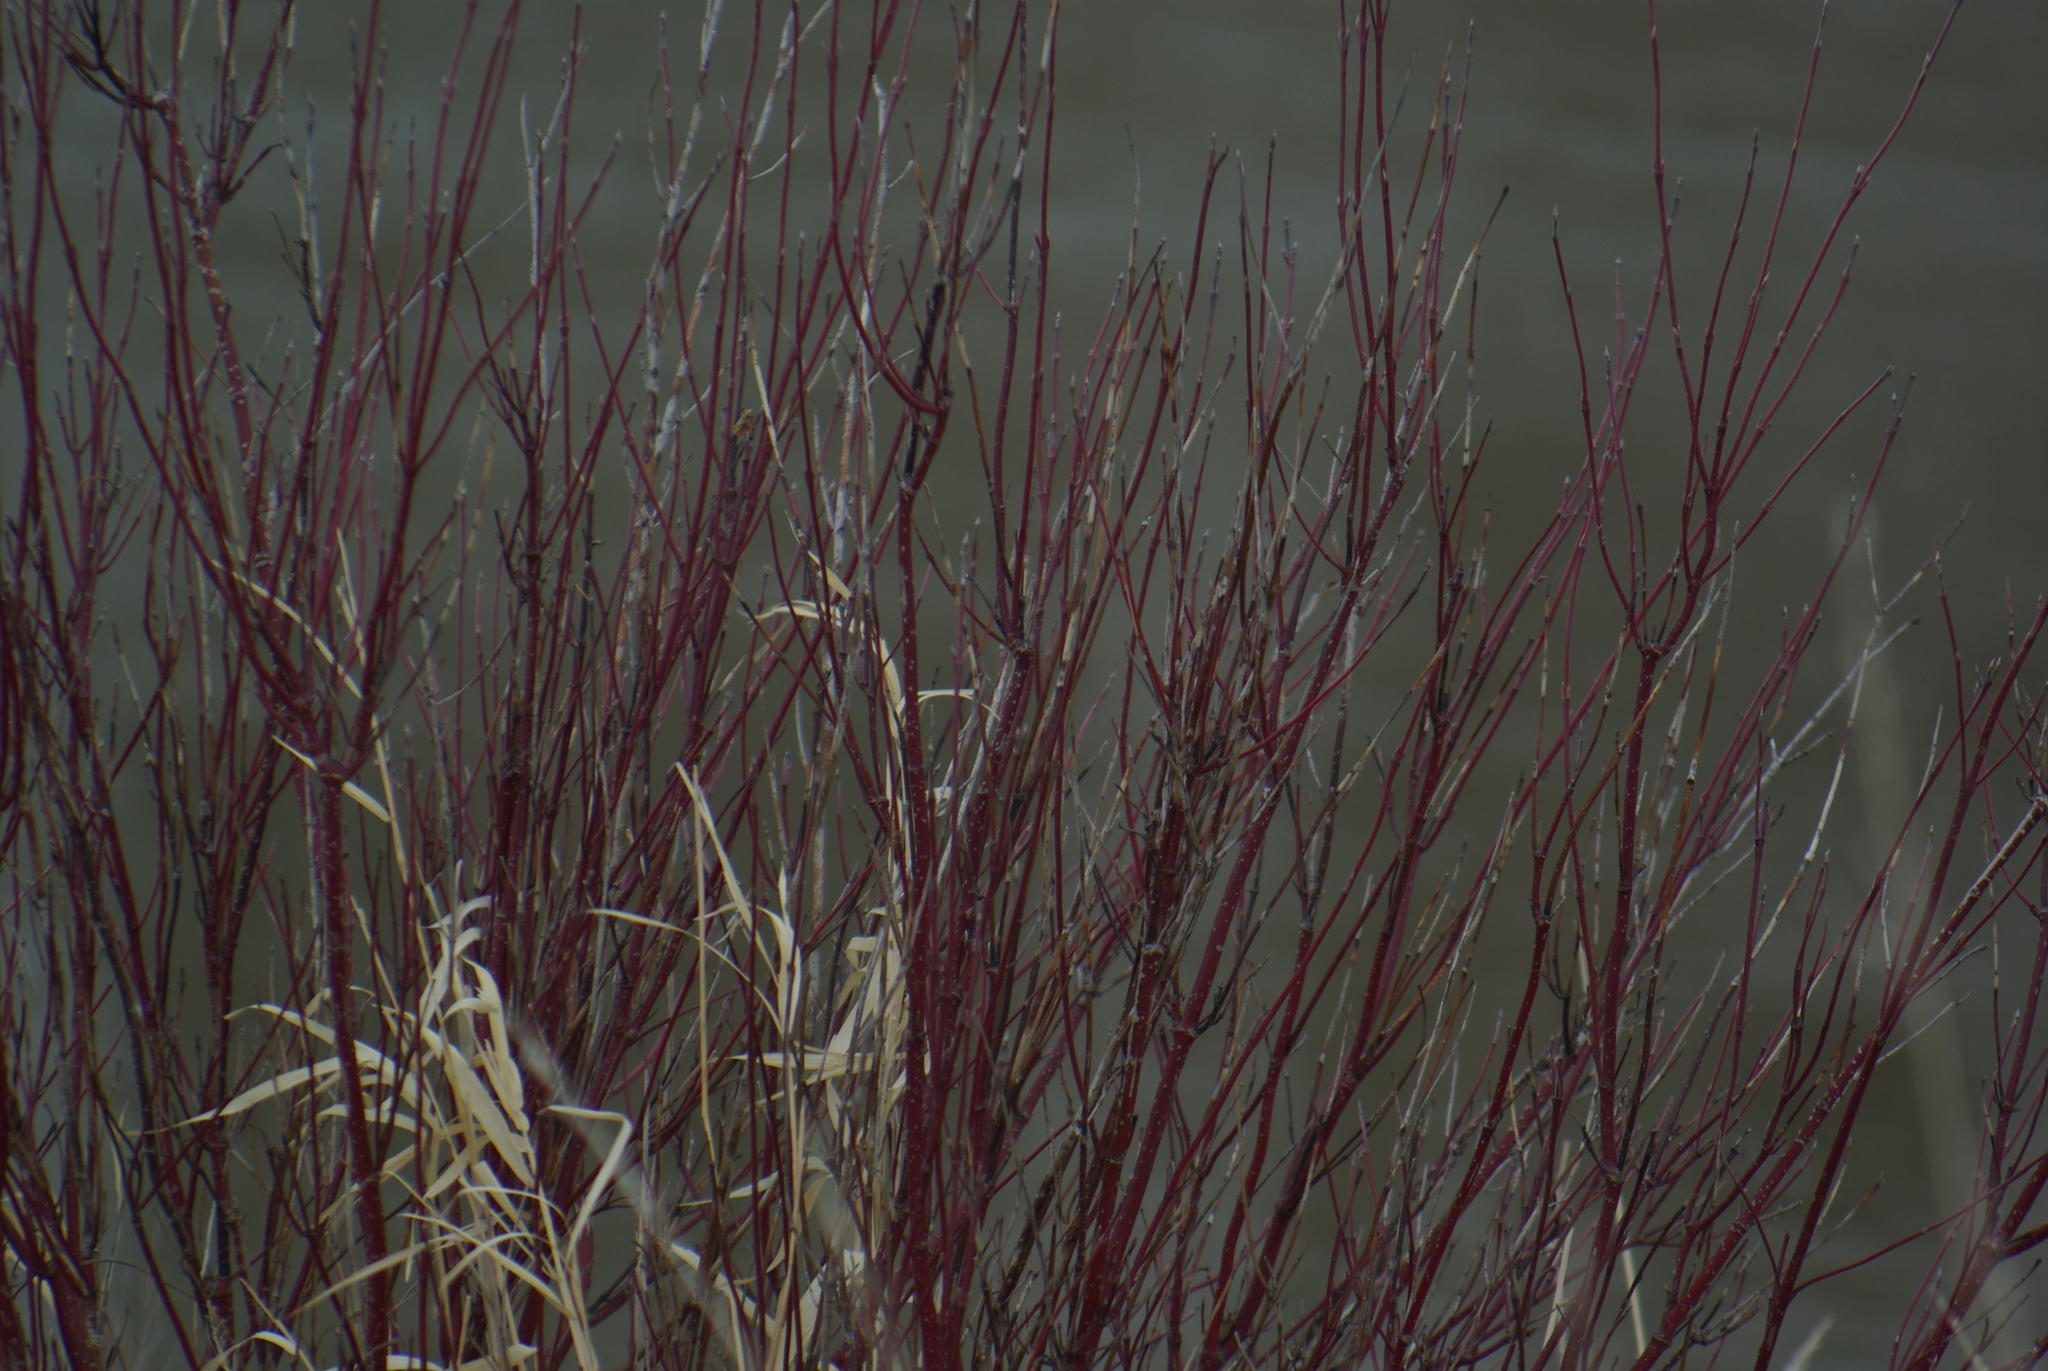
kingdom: Plantae
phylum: Tracheophyta
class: Magnoliopsida
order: Cornales
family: Cornaceae
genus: Cornus
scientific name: Cornus sericea
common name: Red-osier dogwood
